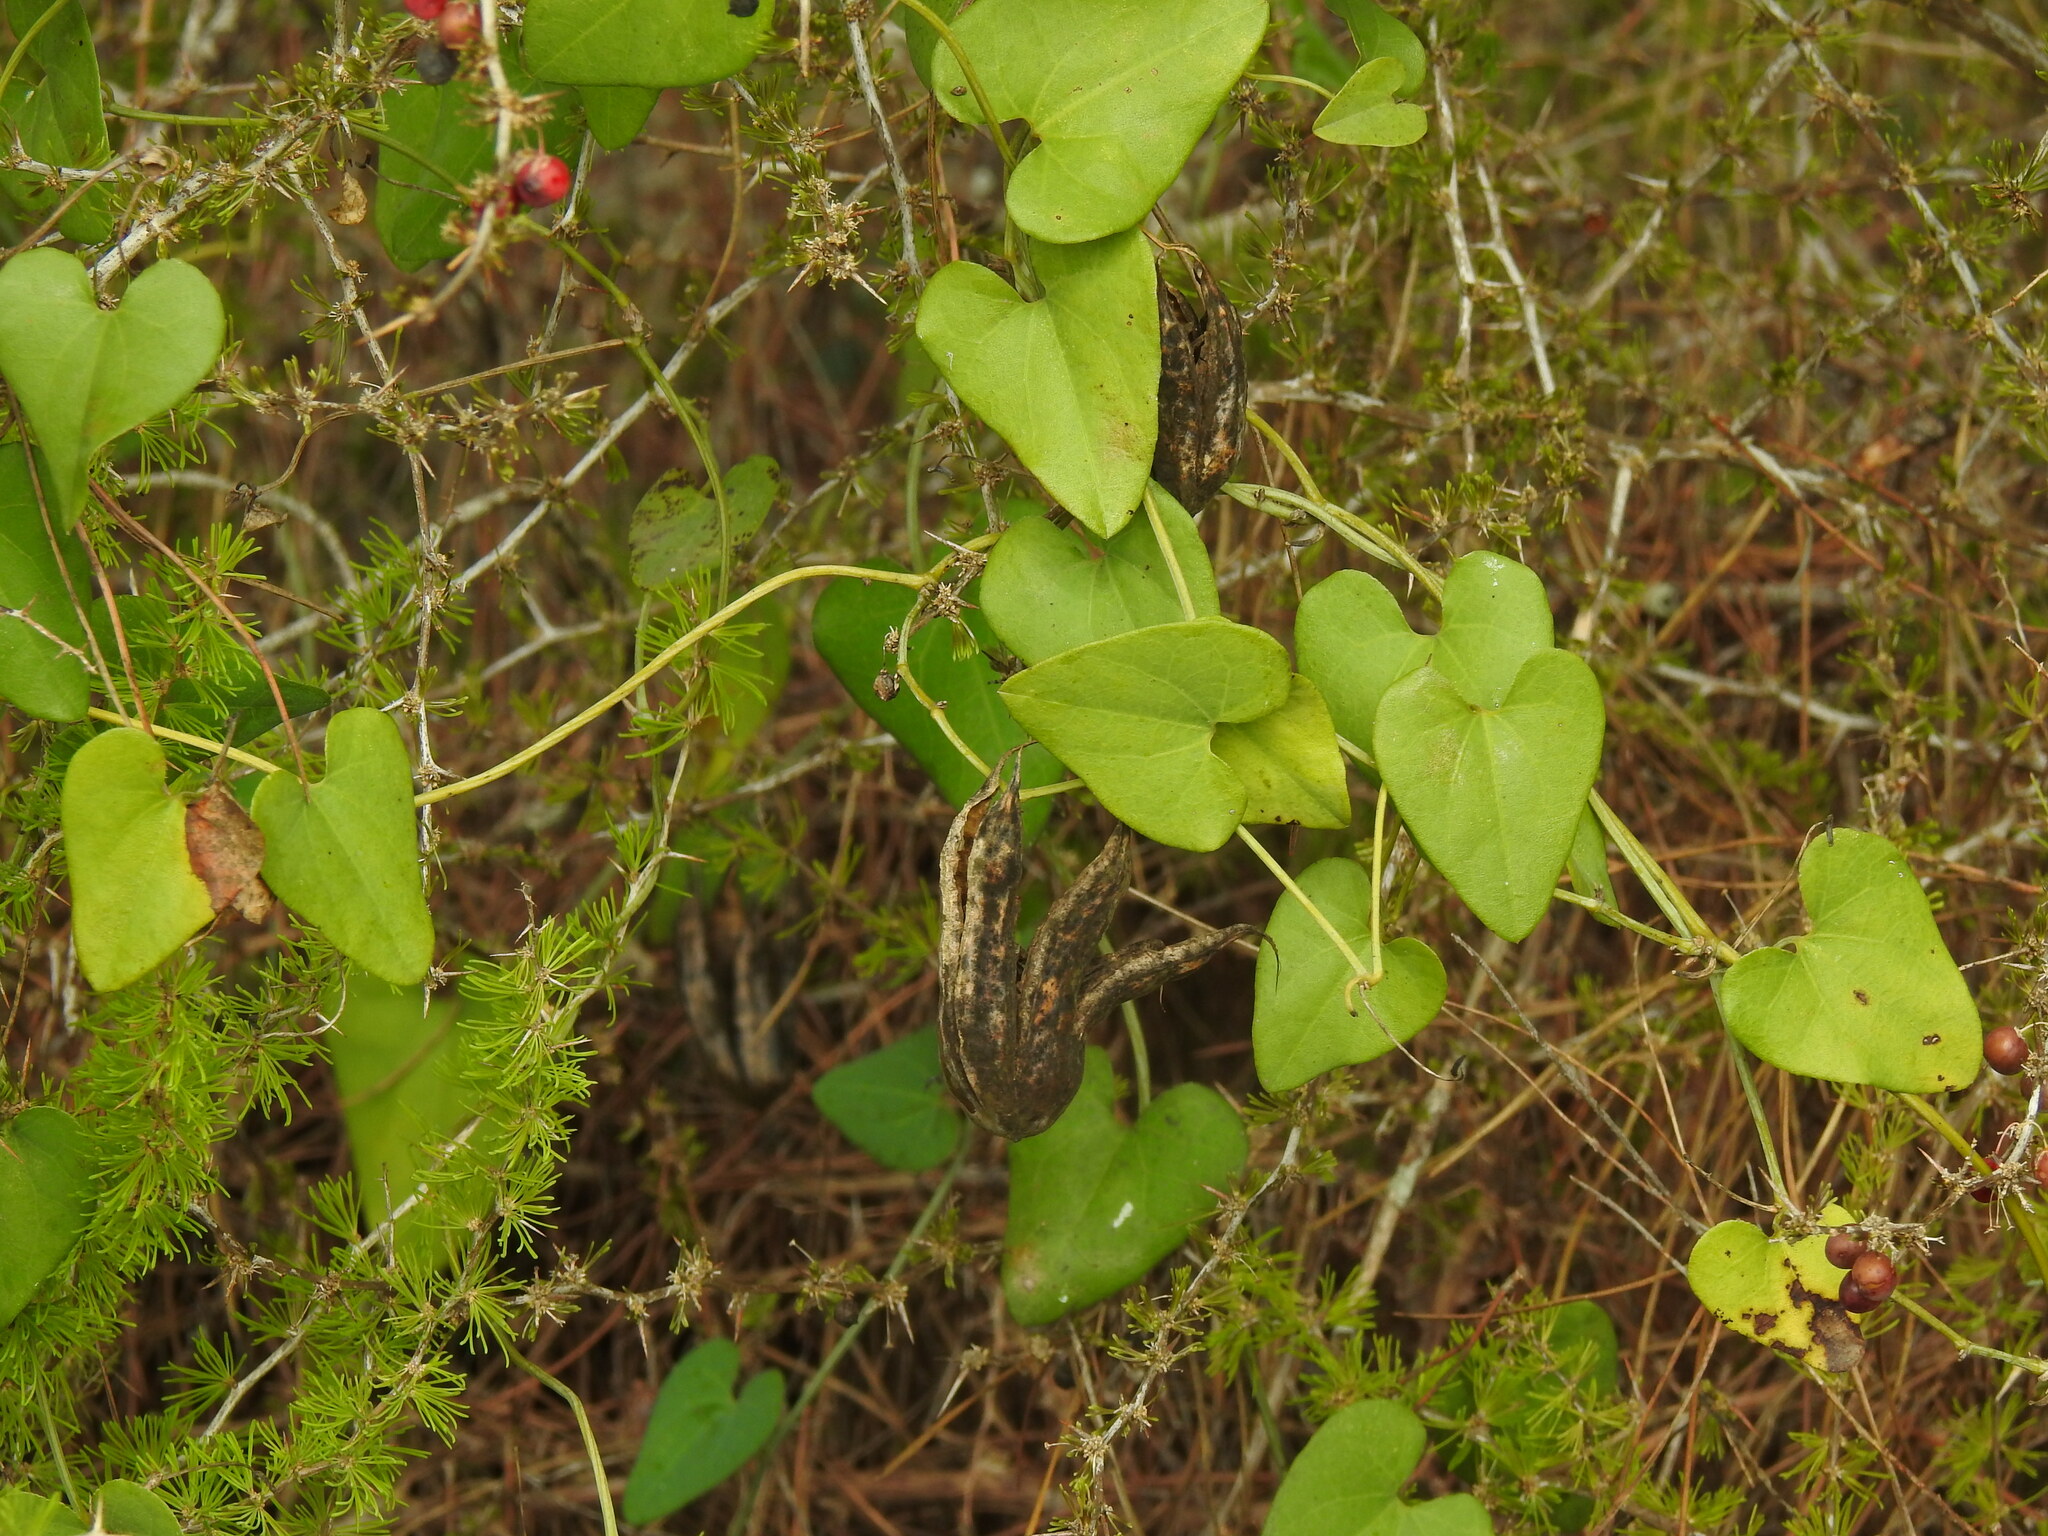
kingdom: Plantae
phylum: Tracheophyta
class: Magnoliopsida
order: Piperales
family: Aristolochiaceae
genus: Aristolochia
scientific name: Aristolochia baetica
